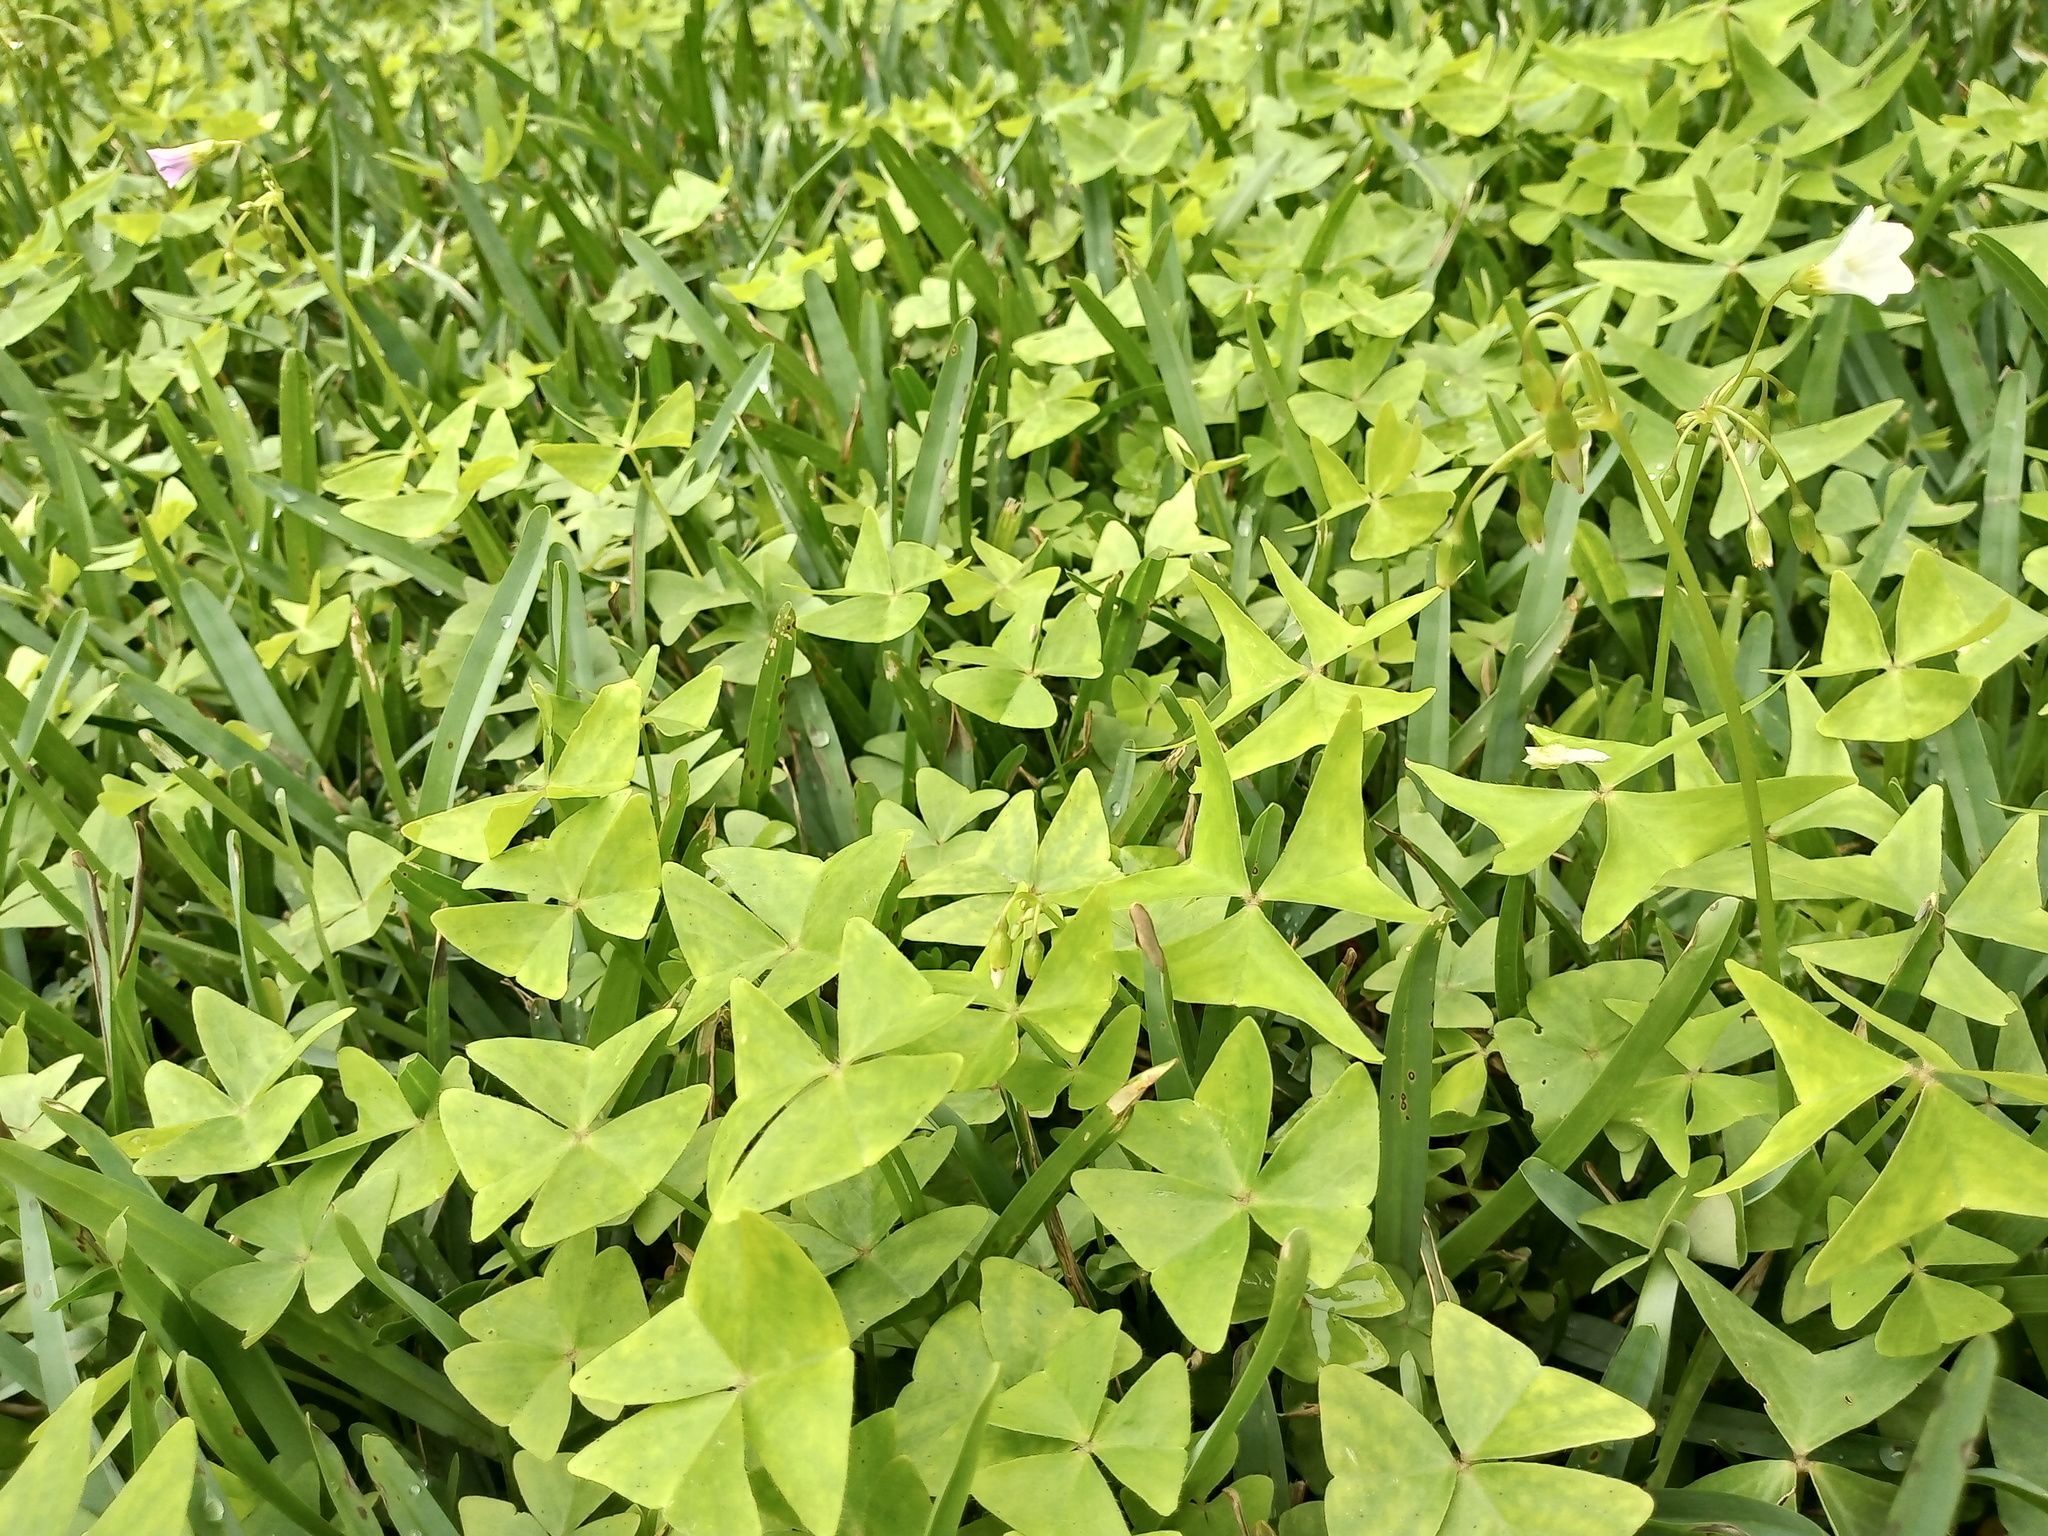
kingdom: Plantae
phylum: Tracheophyta
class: Magnoliopsida
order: Oxalidales
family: Oxalidaceae
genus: Oxalis
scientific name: Oxalis latifolia
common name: Garden pink-sorrel
